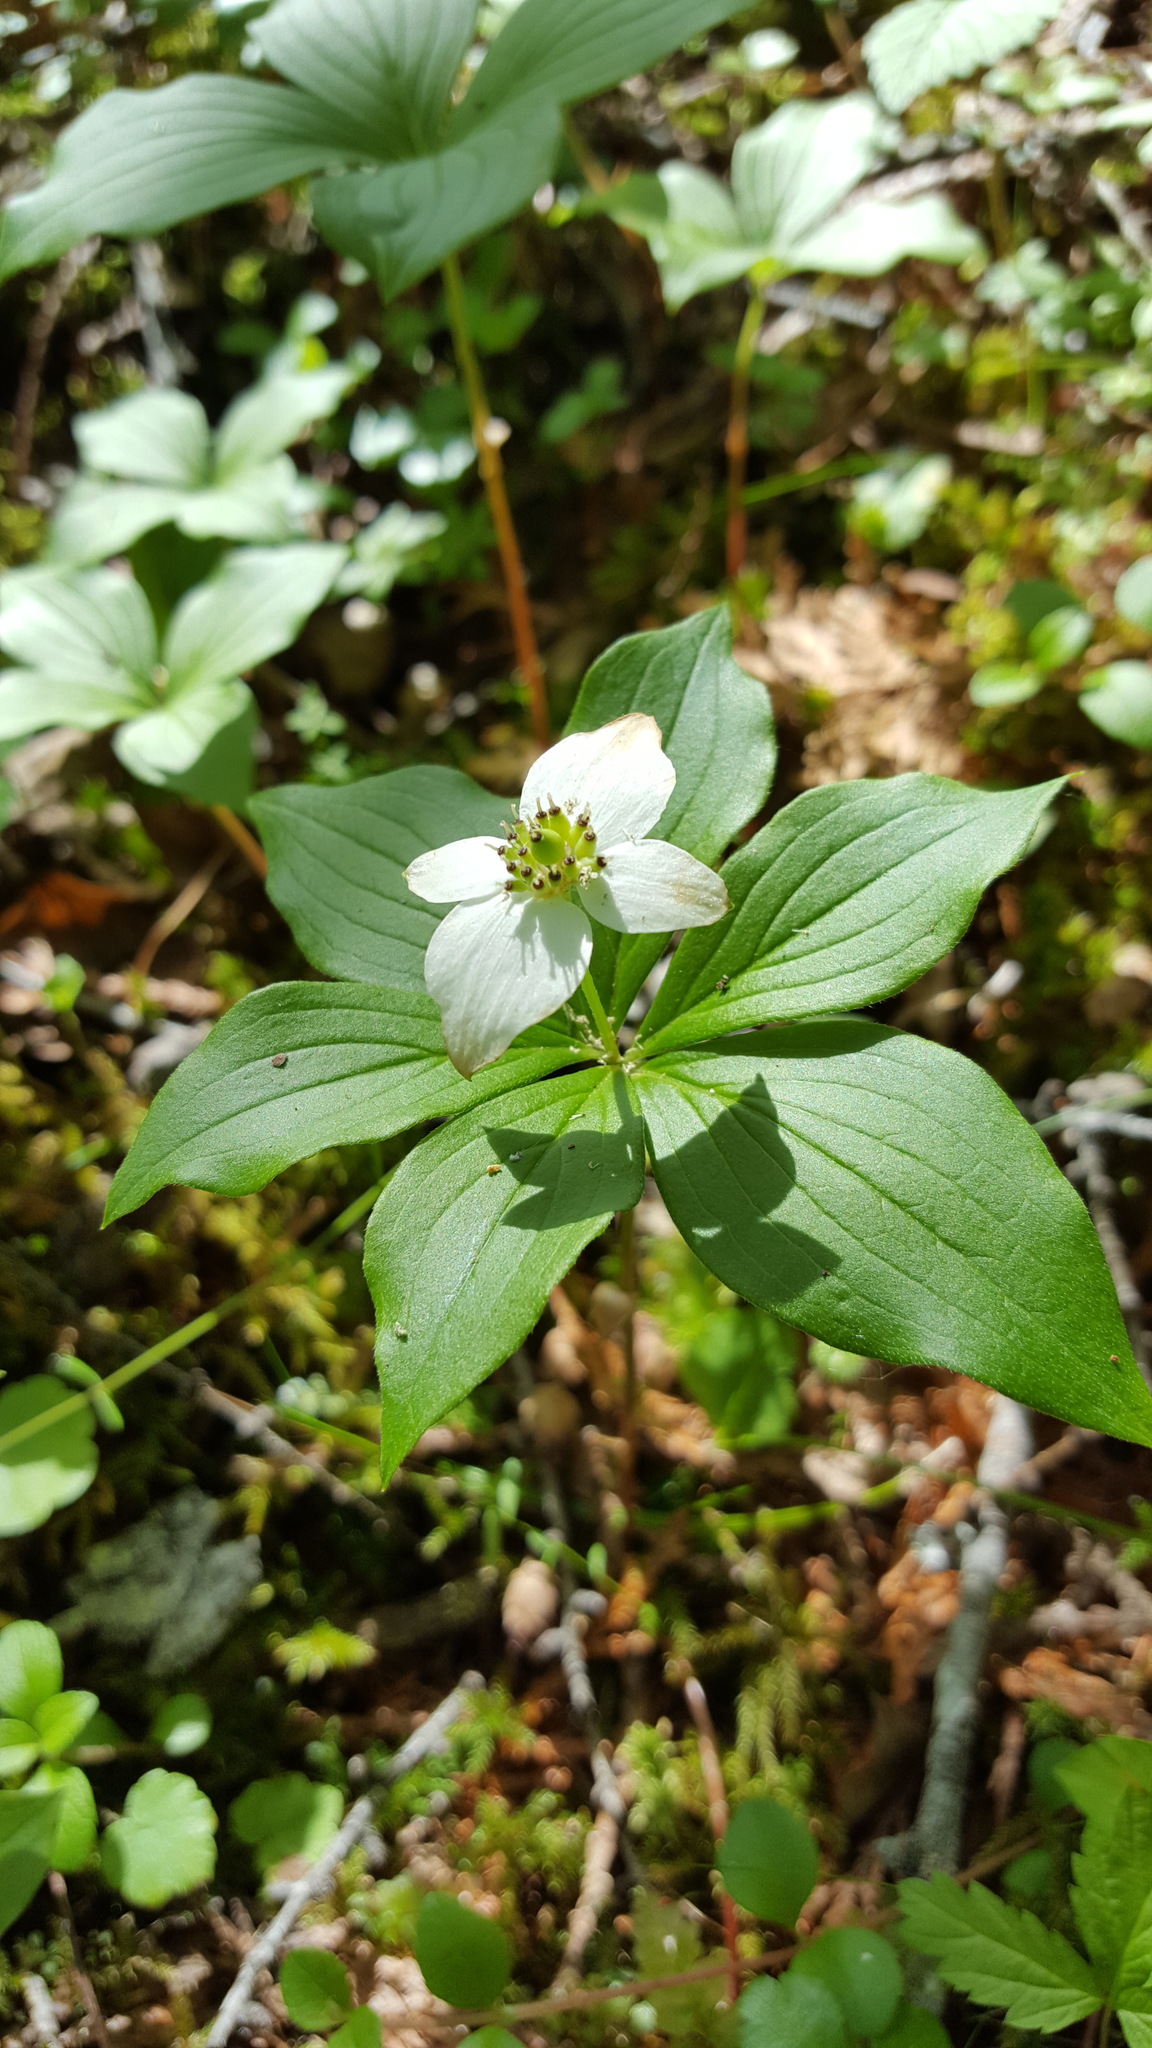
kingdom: Plantae
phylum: Tracheophyta
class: Magnoliopsida
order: Cornales
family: Cornaceae
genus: Cornus
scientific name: Cornus canadensis
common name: Creeping dogwood
